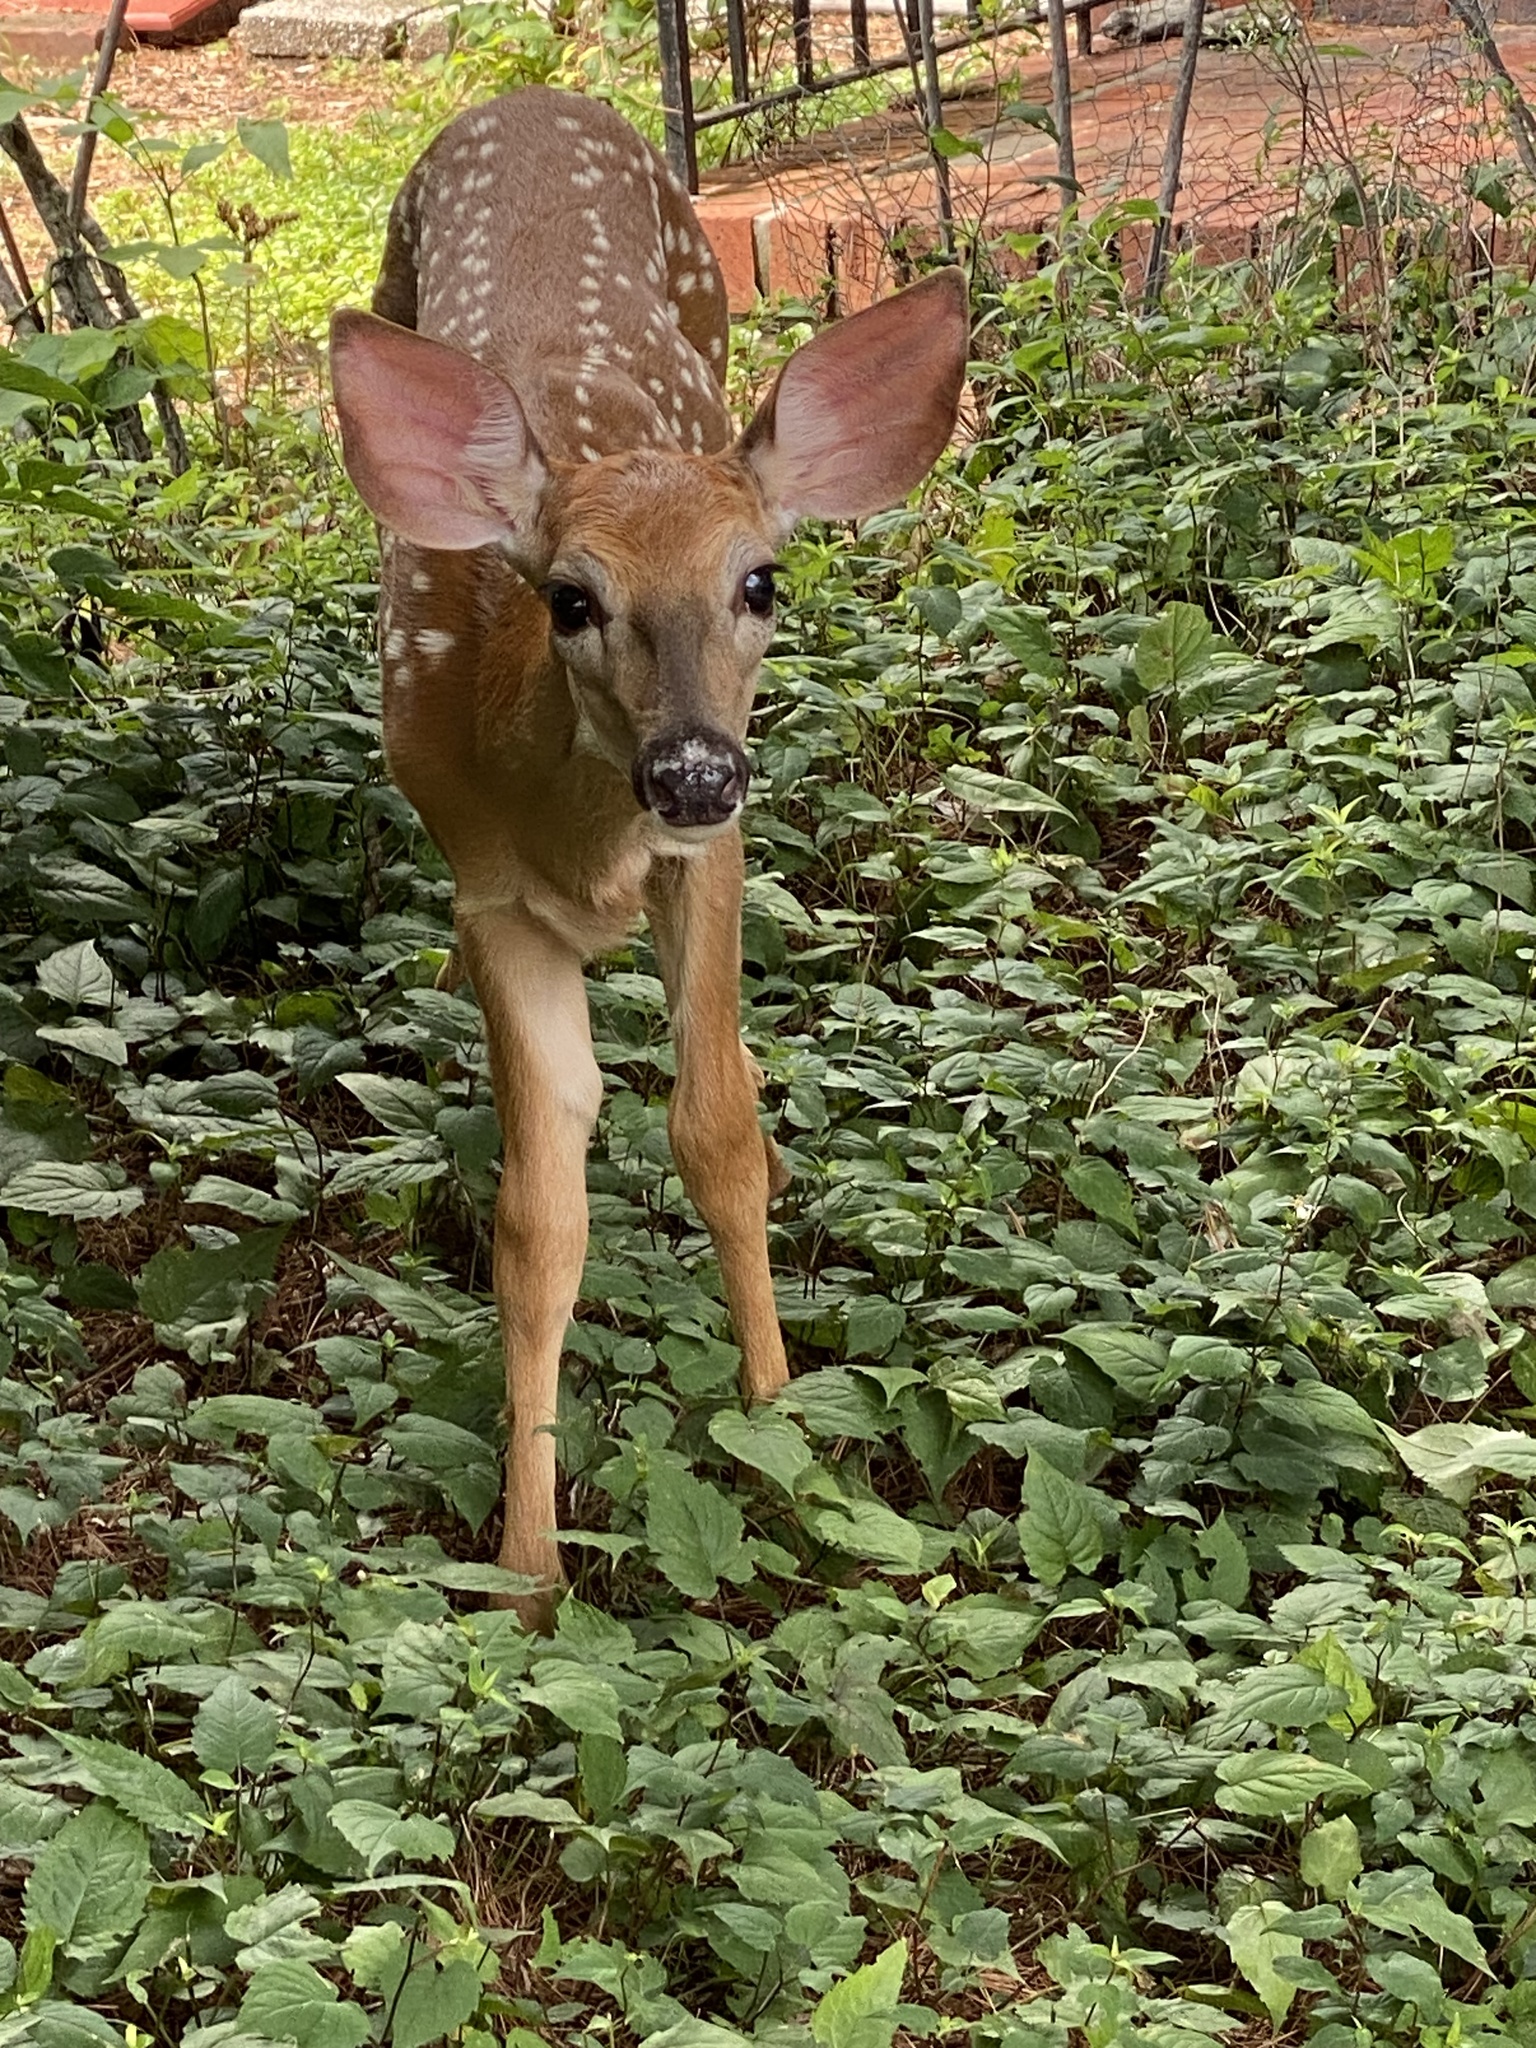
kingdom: Animalia
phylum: Chordata
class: Mammalia
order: Artiodactyla
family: Cervidae
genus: Odocoileus
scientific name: Odocoileus virginianus
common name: White-tailed deer
